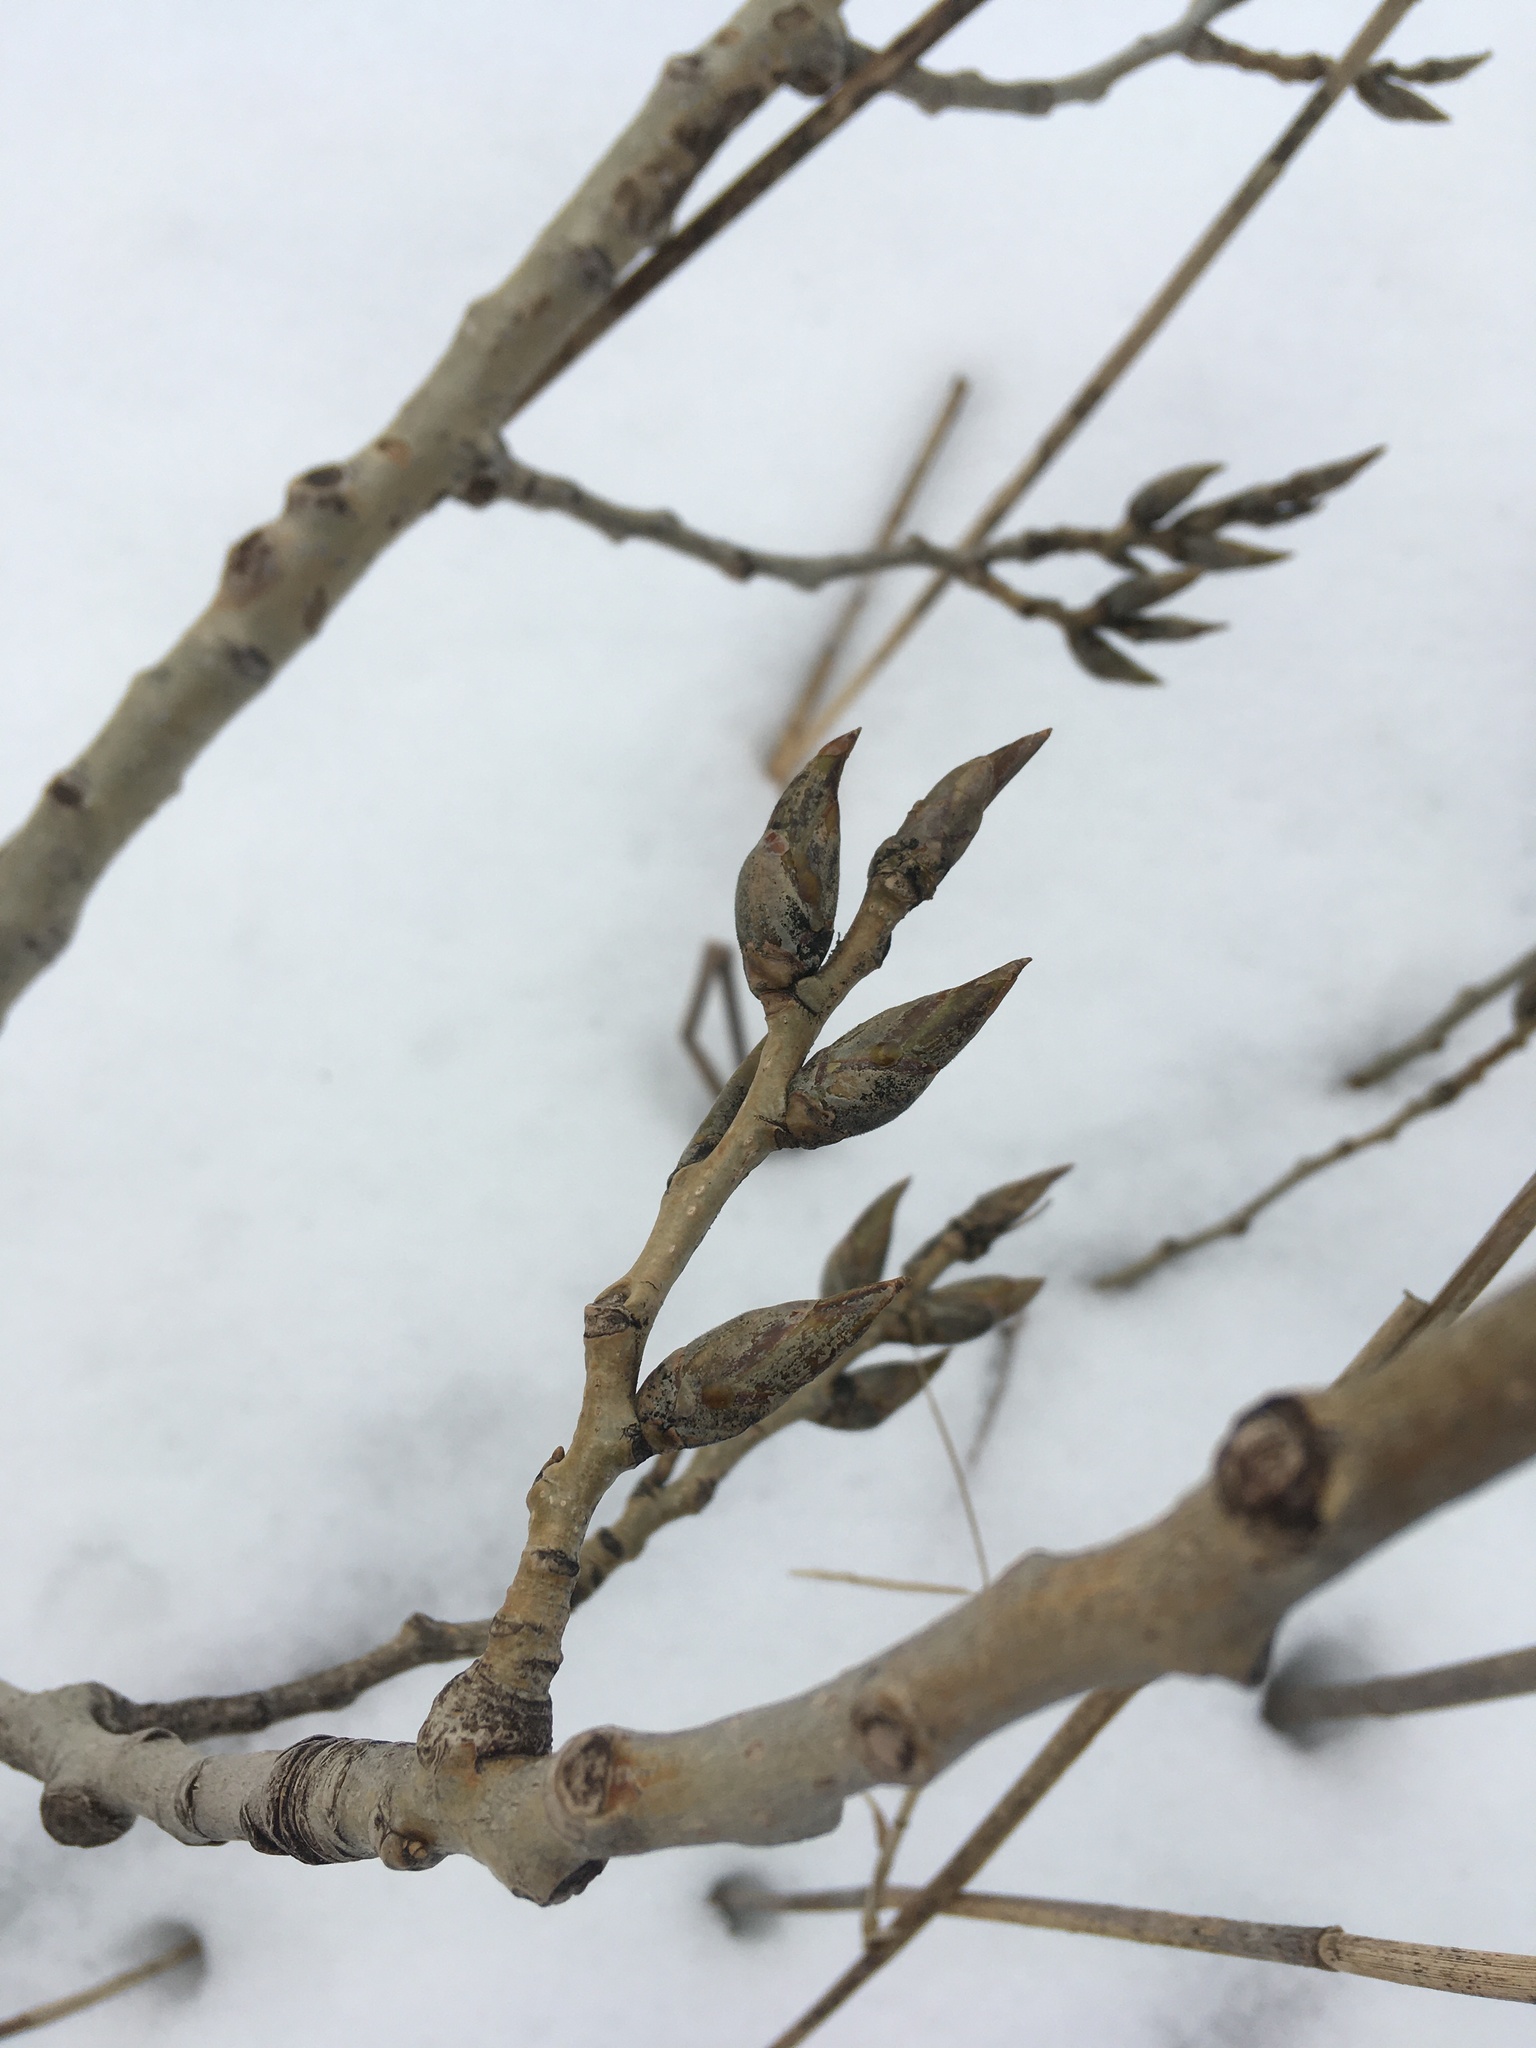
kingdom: Plantae
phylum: Tracheophyta
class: Magnoliopsida
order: Malpighiales
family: Salicaceae
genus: Populus
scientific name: Populus deltoides
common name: Eastern cottonwood
